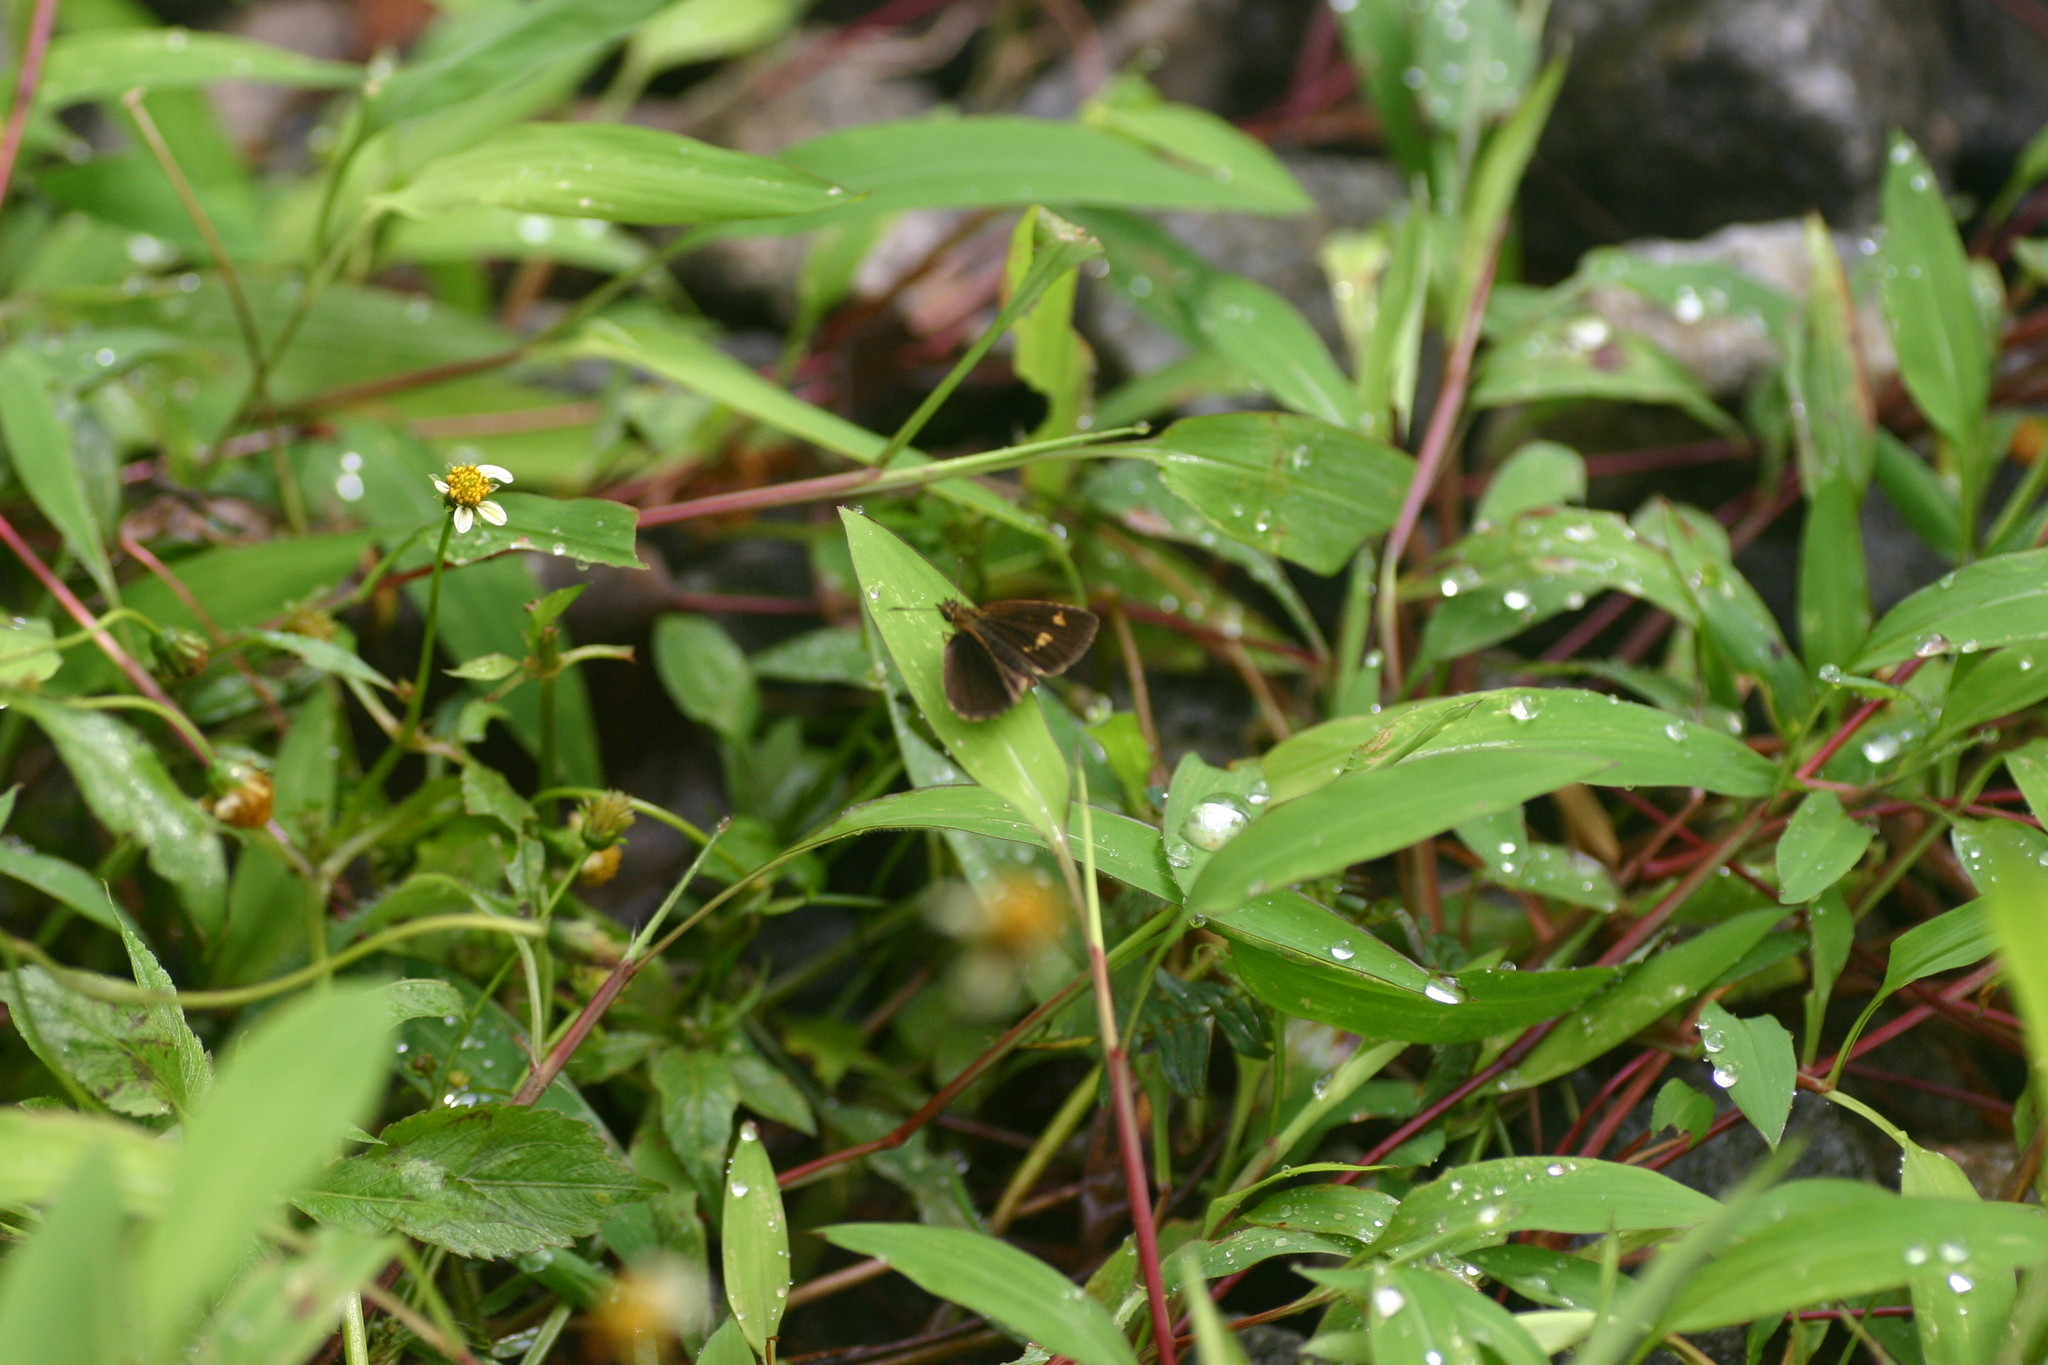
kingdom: Animalia
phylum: Arthropoda
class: Insecta
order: Lepidoptera
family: Hesperiidae
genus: Baracus
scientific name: Baracus vittatus
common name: Hedge-hopper
